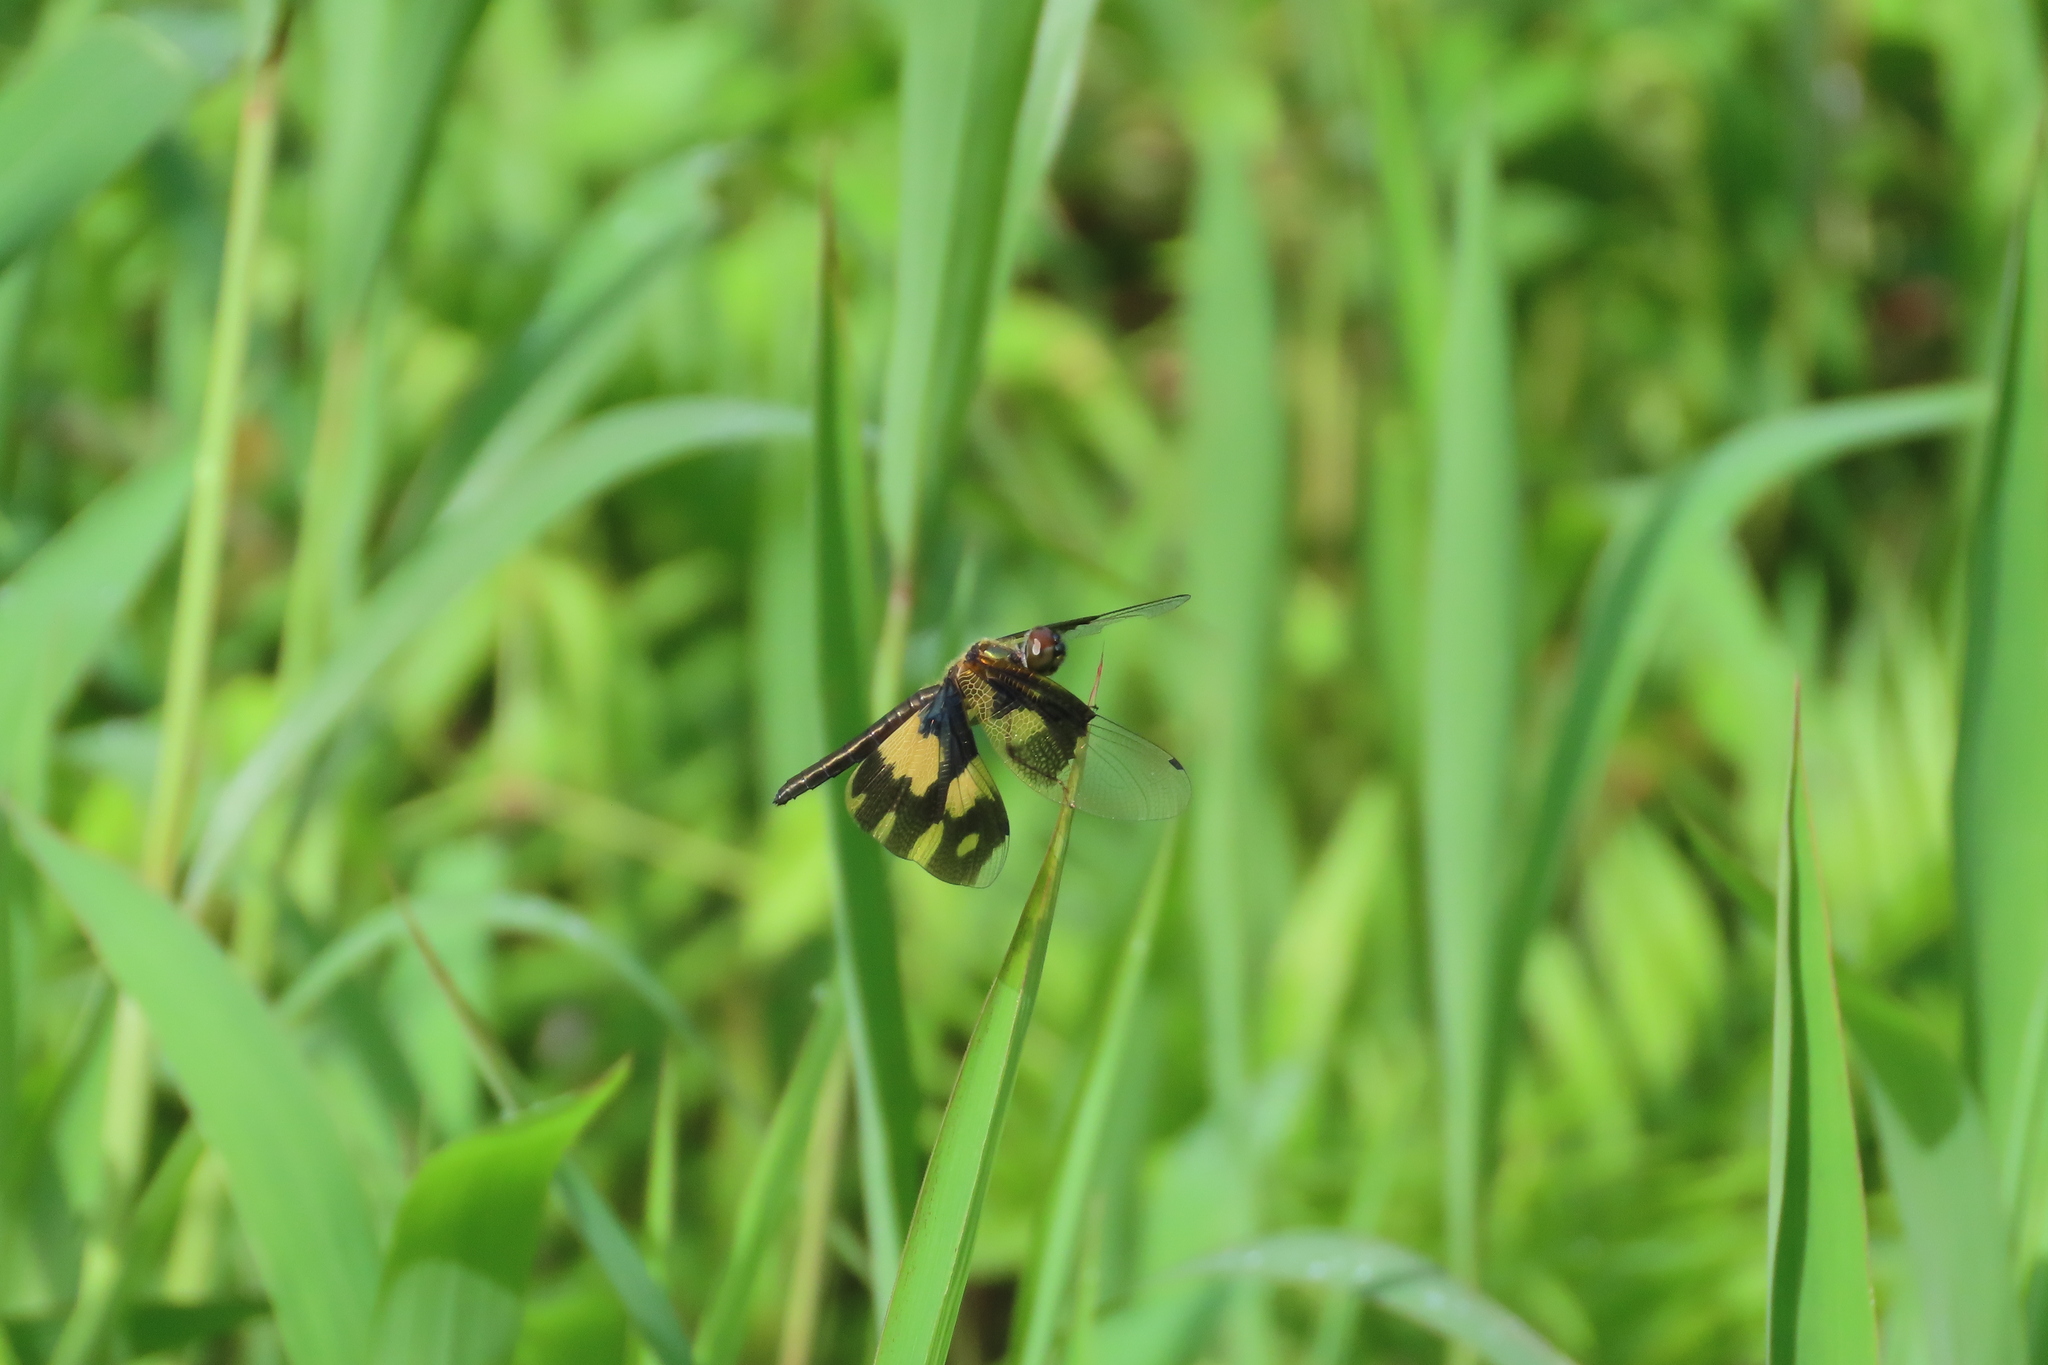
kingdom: Animalia
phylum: Arthropoda
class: Insecta
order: Odonata
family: Libellulidae
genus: Rhyothemis
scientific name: Rhyothemis variegata
